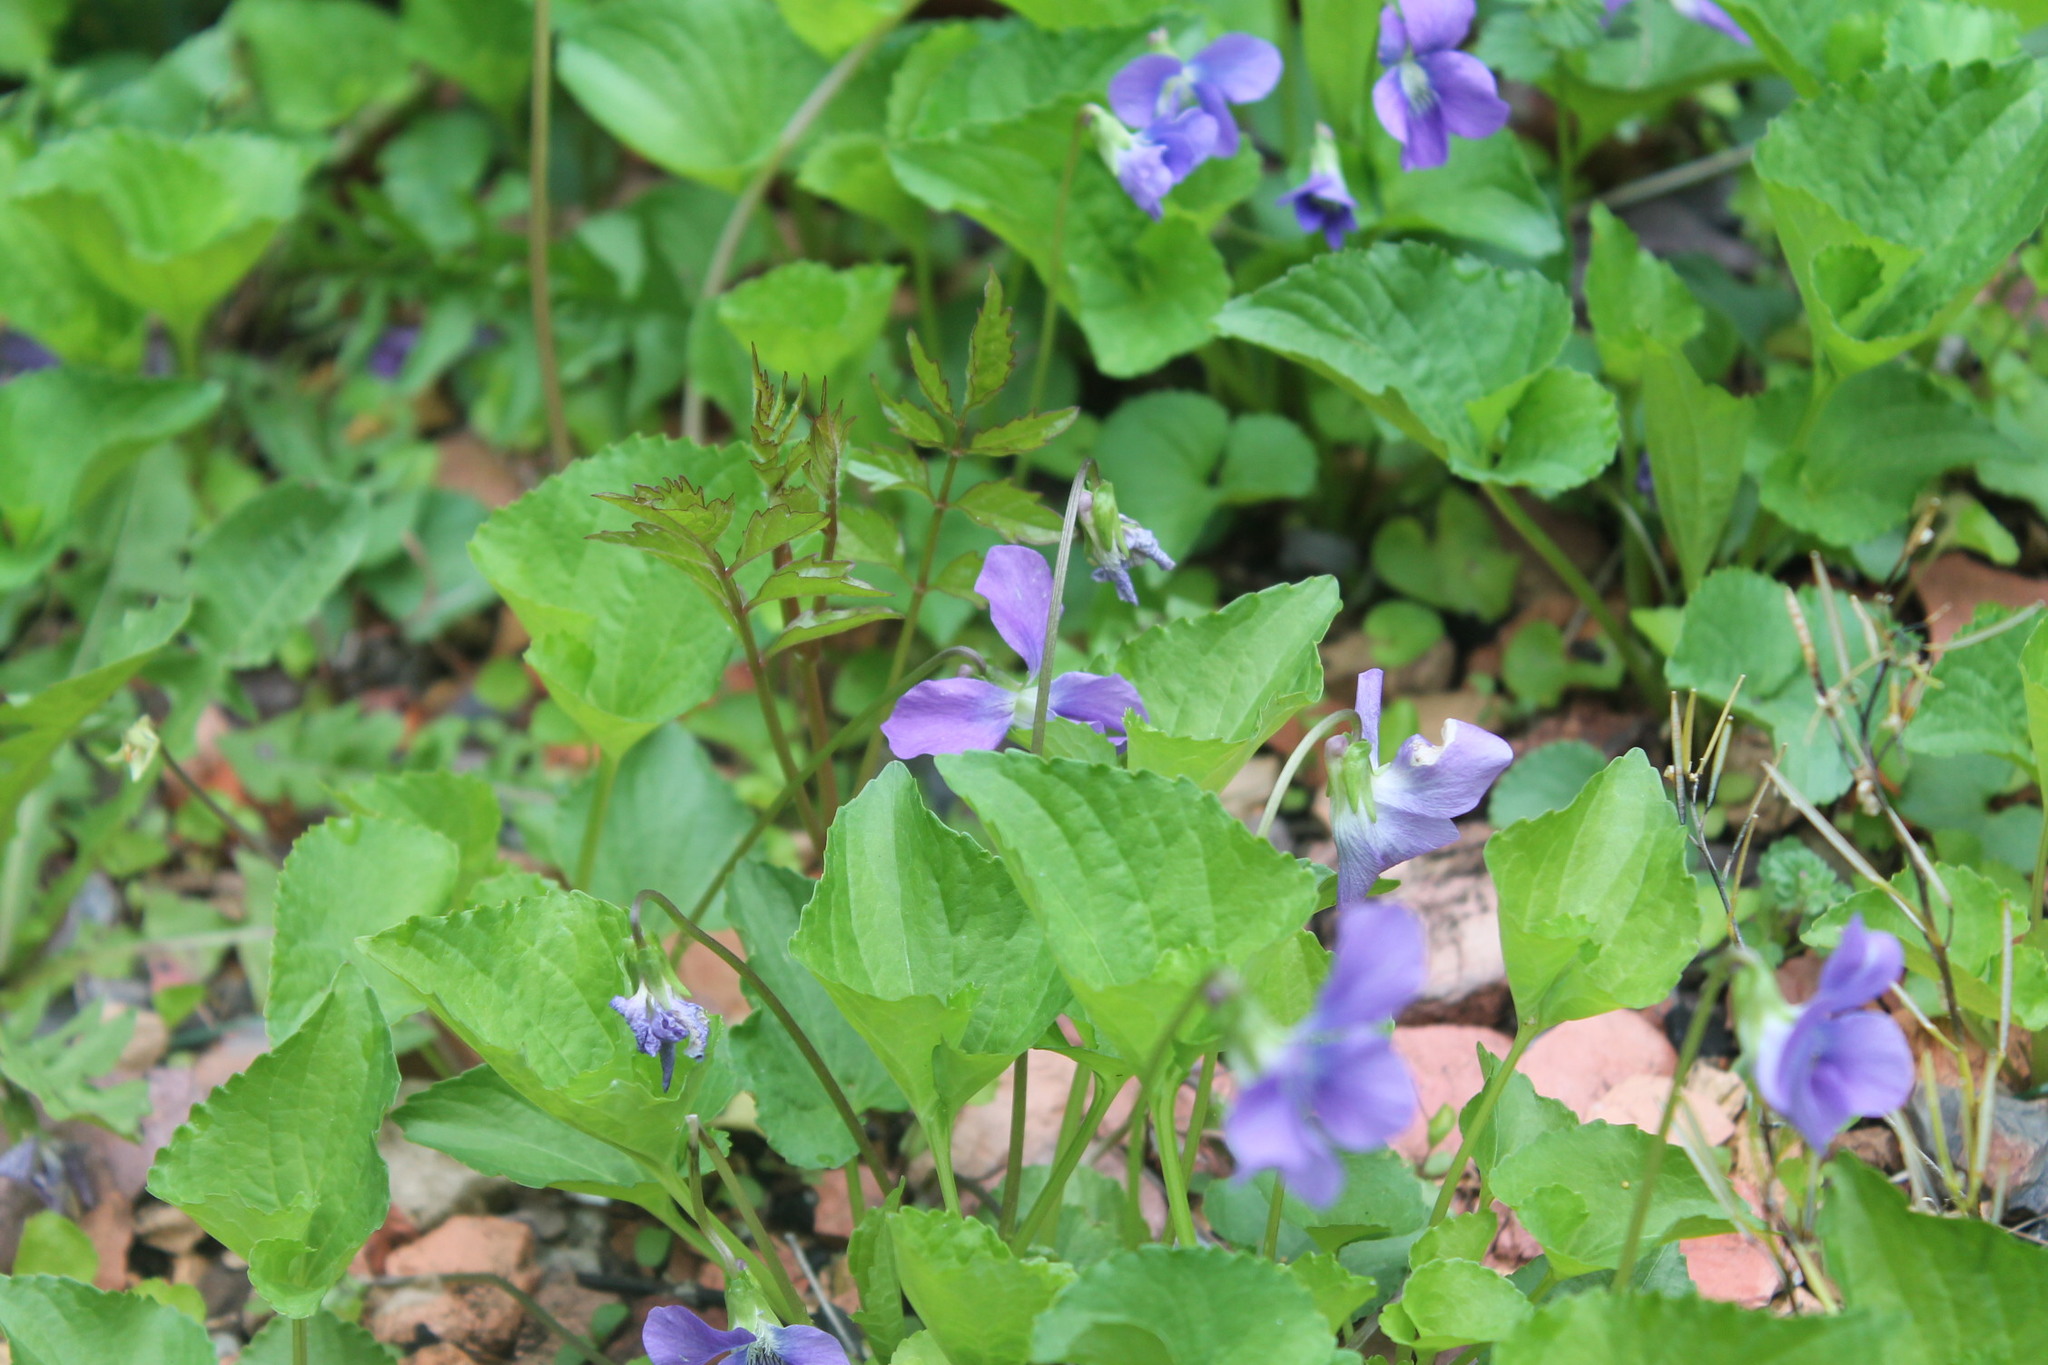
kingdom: Plantae
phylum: Tracheophyta
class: Magnoliopsida
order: Malpighiales
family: Violaceae
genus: Viola
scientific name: Viola sororia
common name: Dooryard violet
